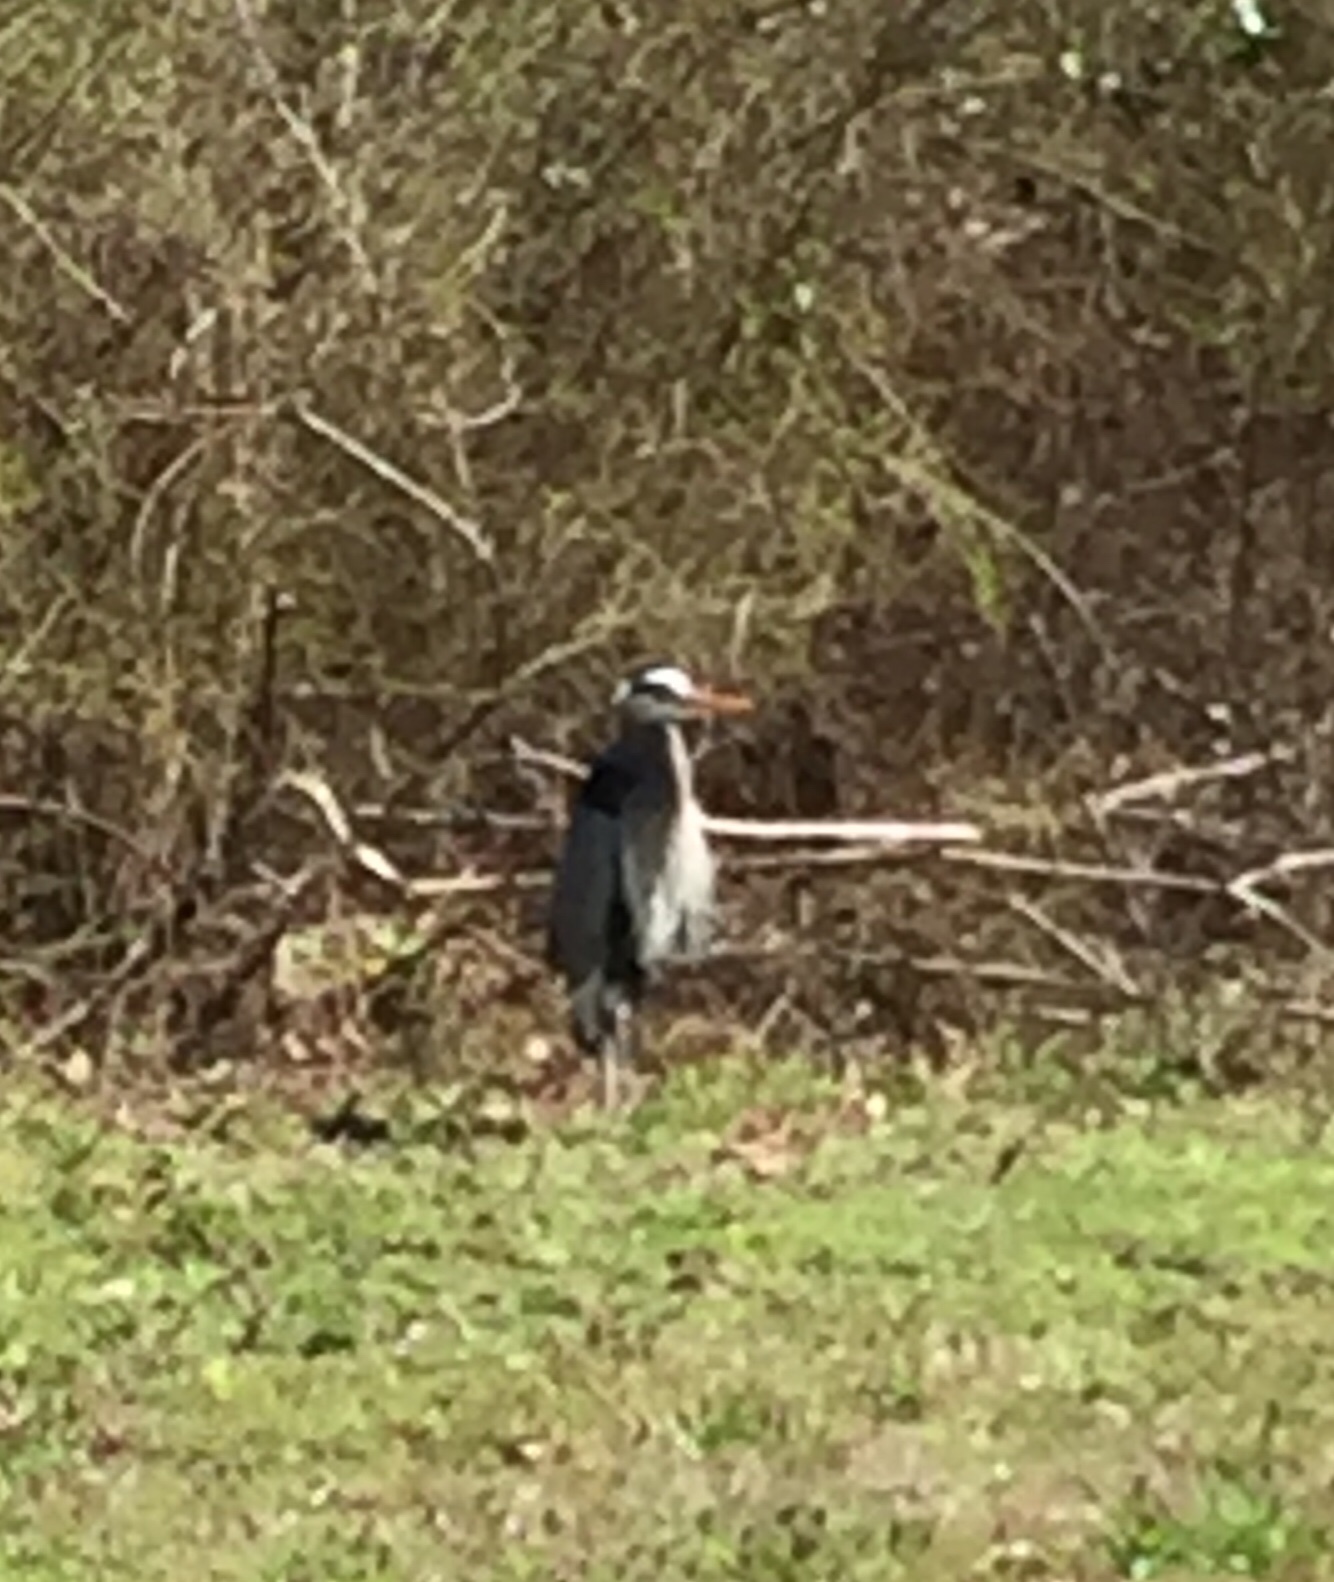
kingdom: Animalia
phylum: Chordata
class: Aves
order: Pelecaniformes
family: Ardeidae
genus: Ardea
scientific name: Ardea herodias
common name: Great blue heron
